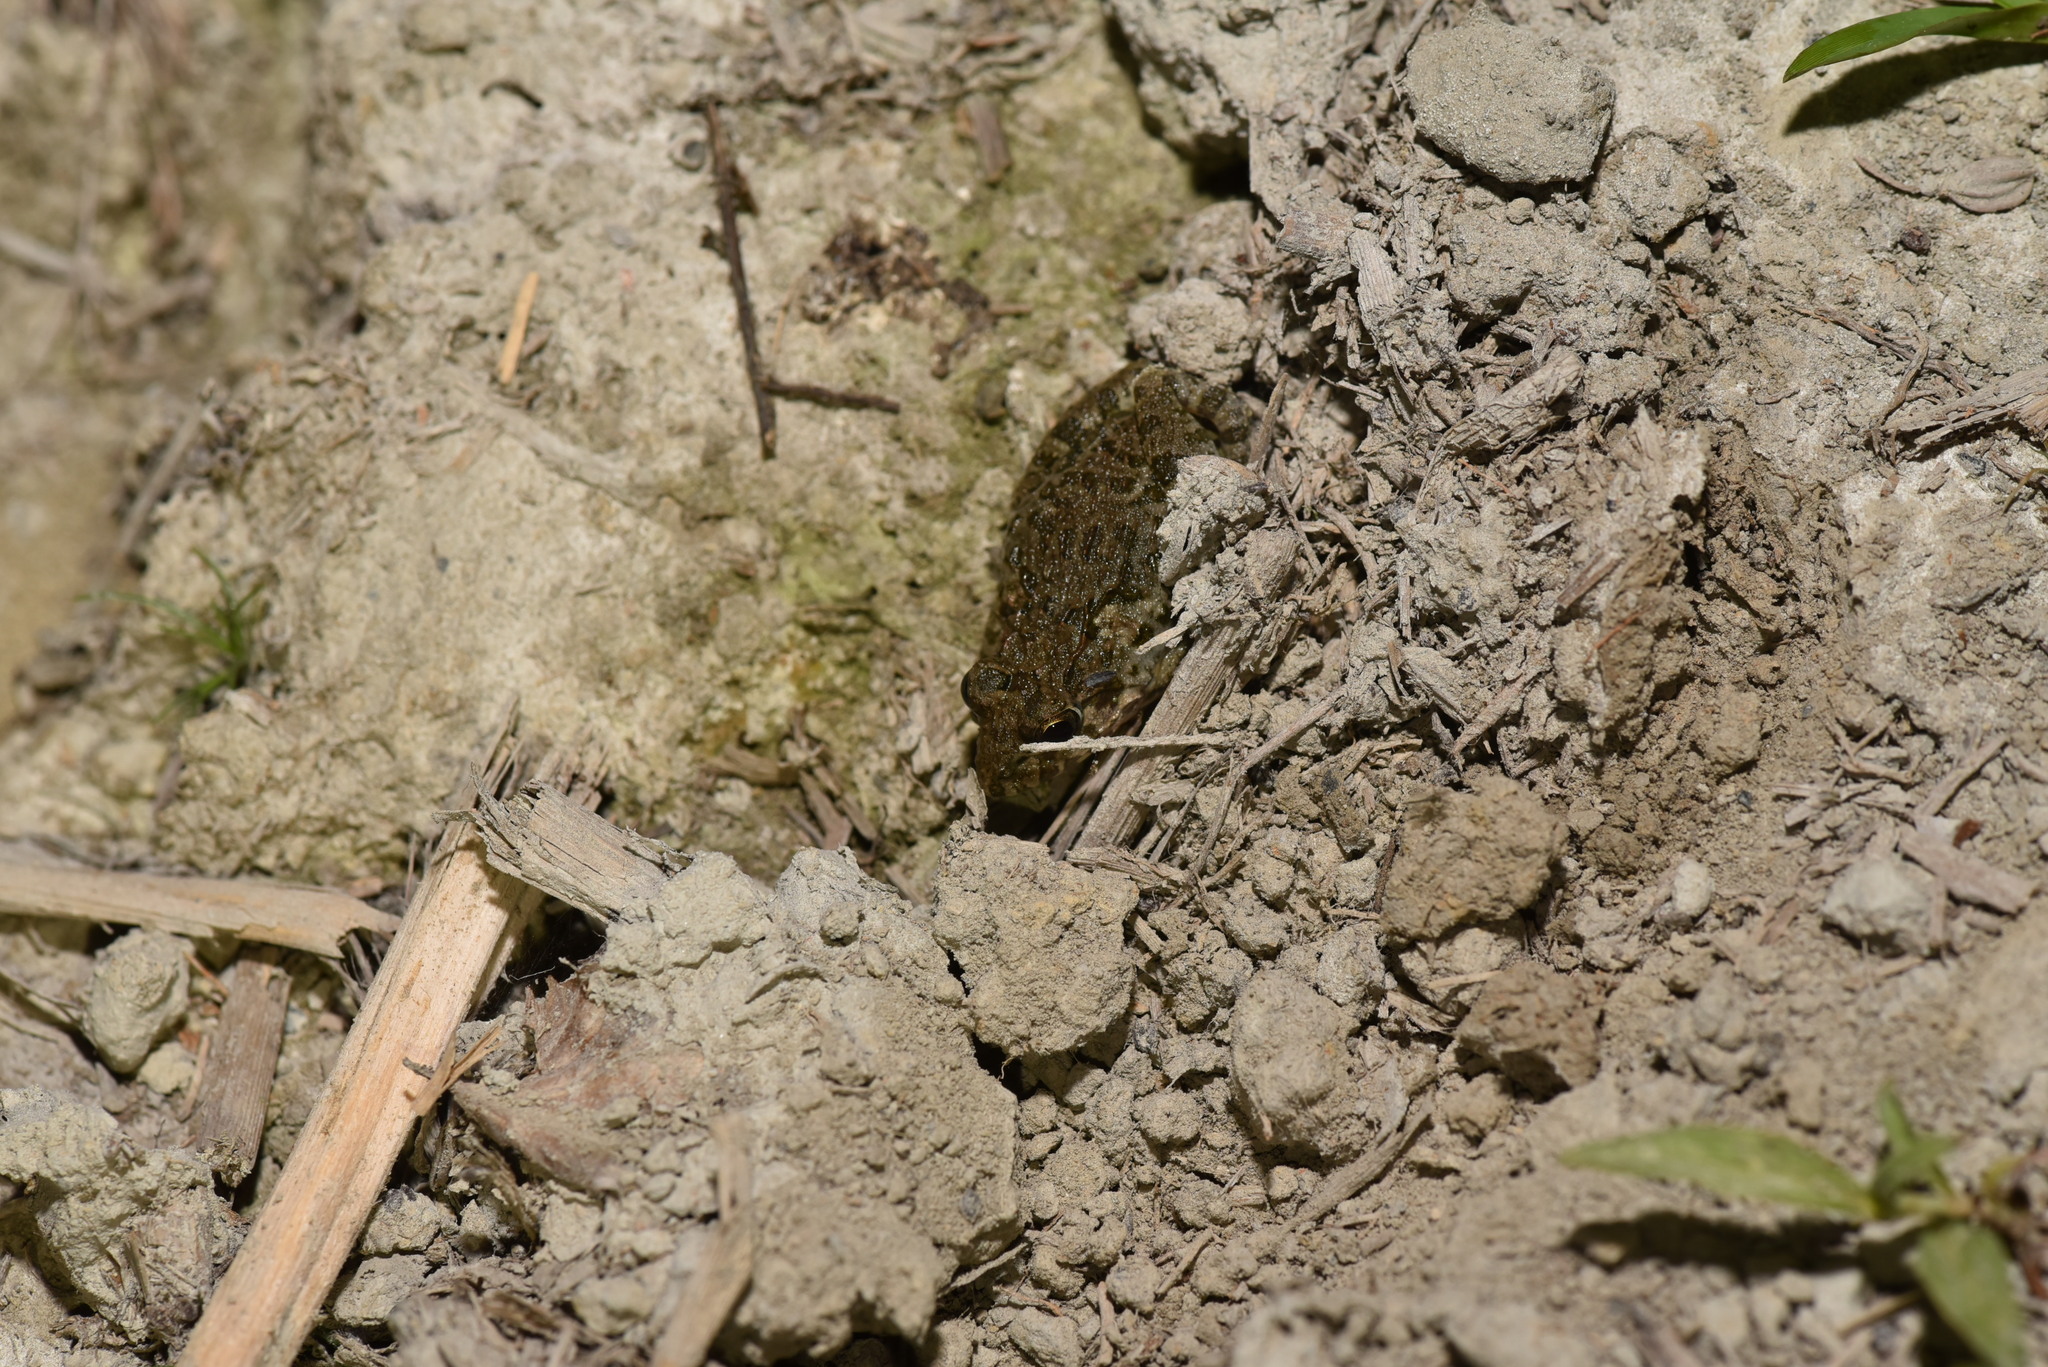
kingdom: Animalia
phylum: Chordata
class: Amphibia
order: Anura
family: Dicroglossidae
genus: Fejervarya
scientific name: Fejervarya limnocharis
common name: Asian grass frog/common pond frog/field frog/grass frog/indian rice frog
